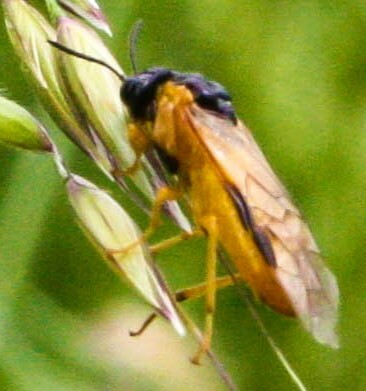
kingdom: Animalia
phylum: Arthropoda
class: Insecta
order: Hymenoptera
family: Tenthredinidae
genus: Selandria
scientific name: Selandria serva
